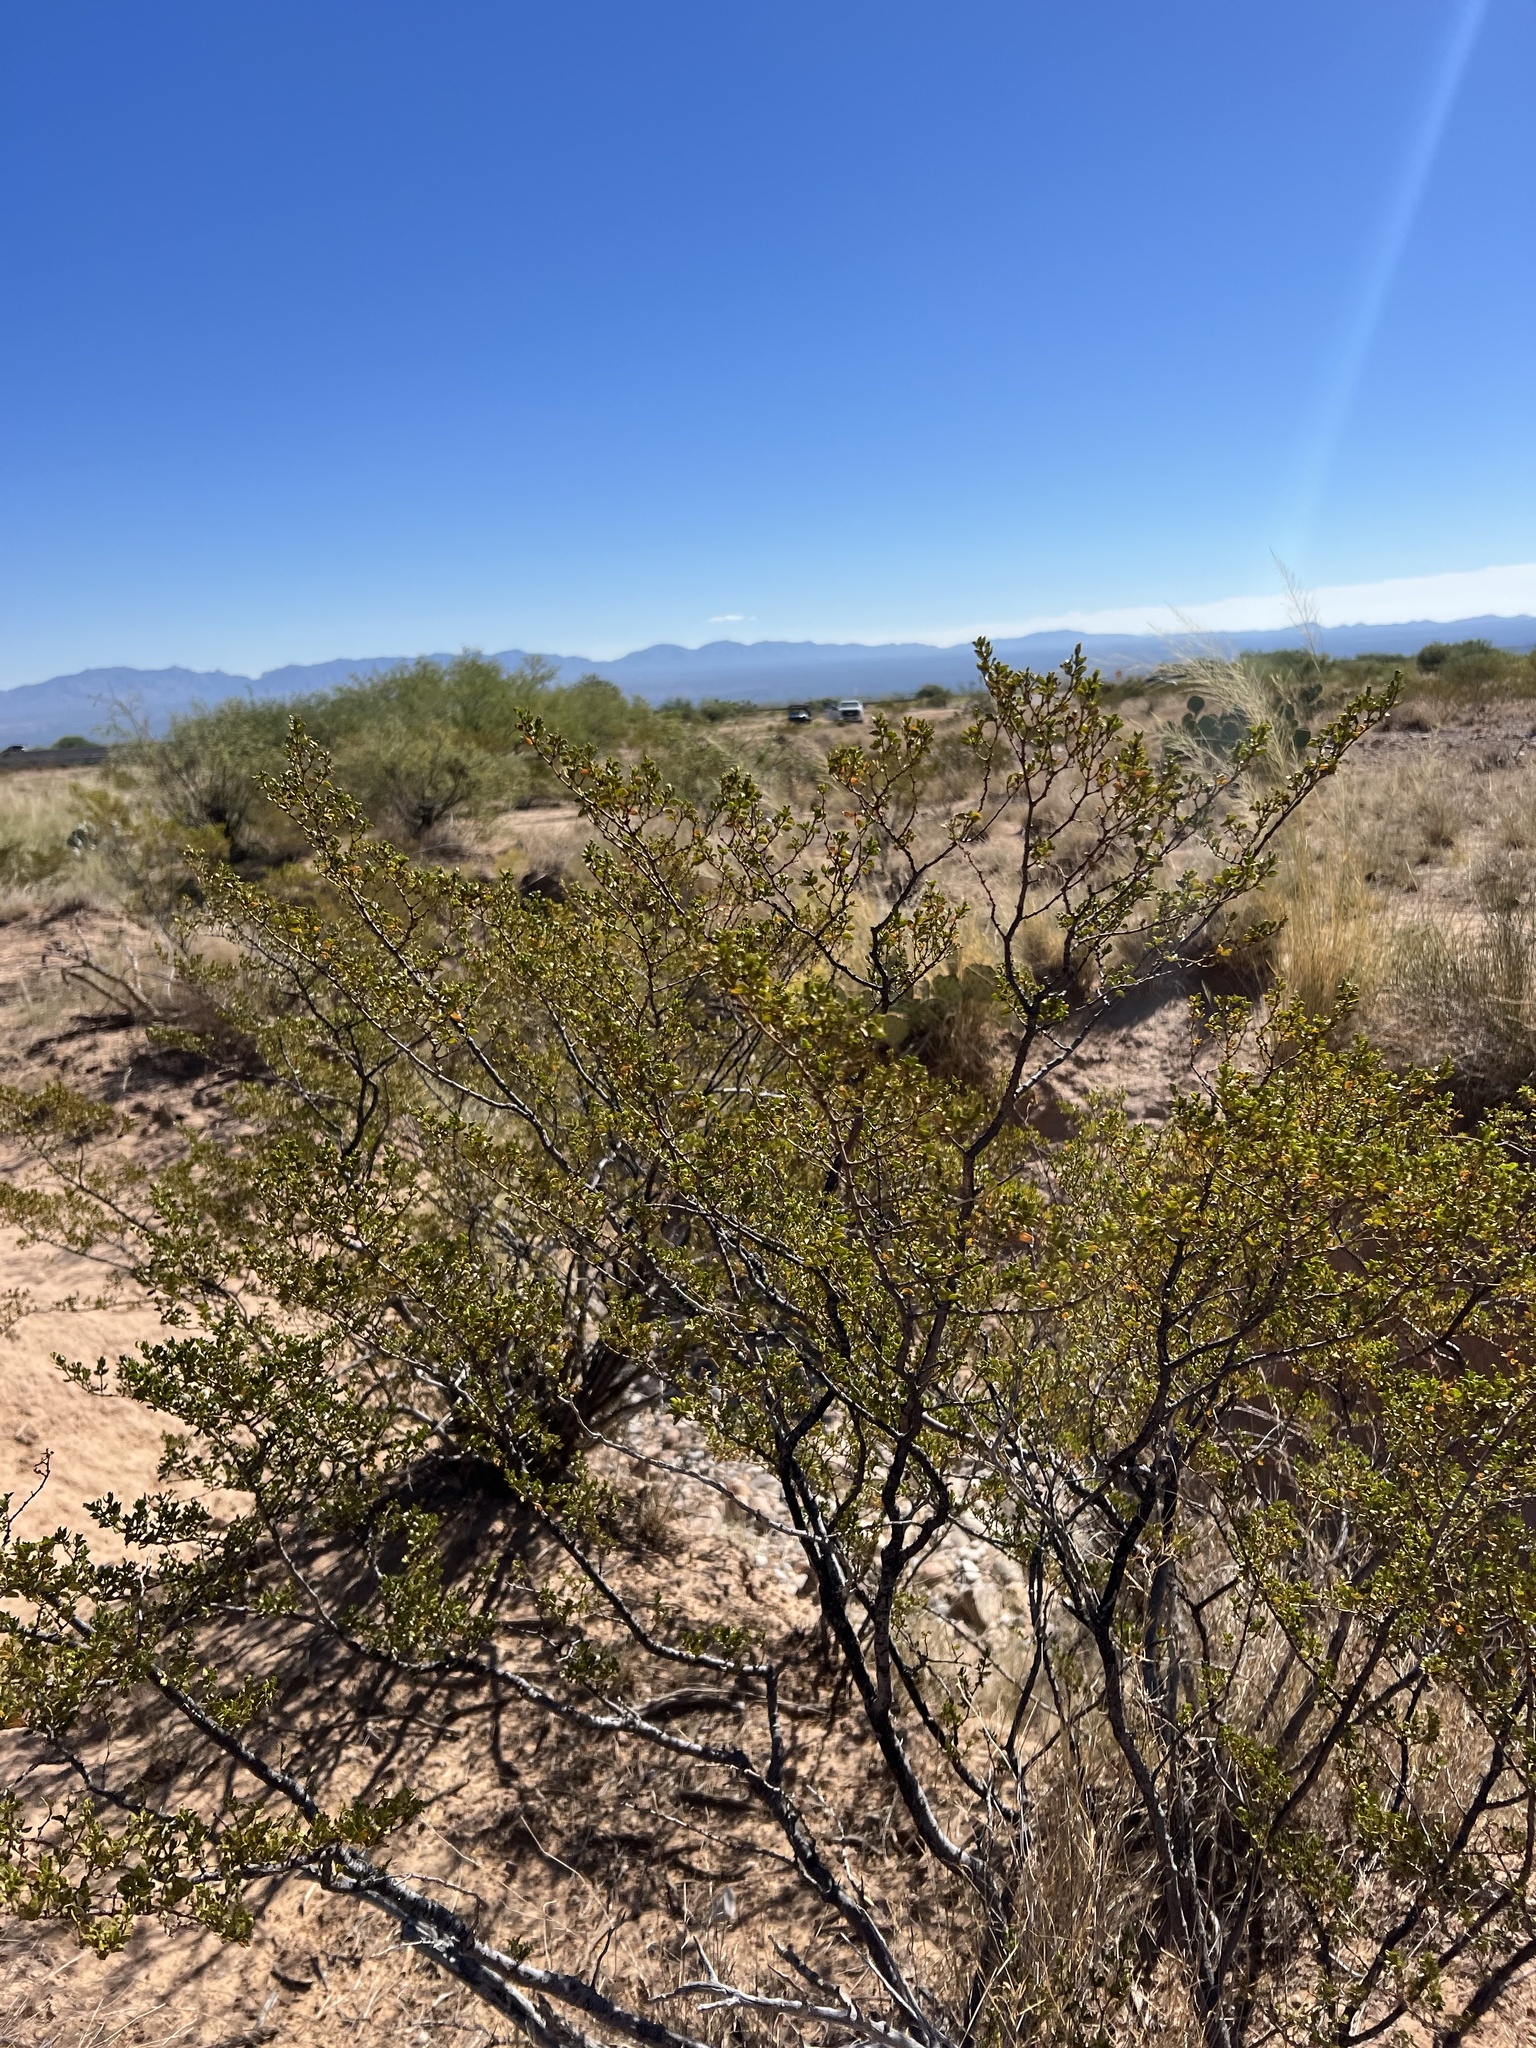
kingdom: Plantae
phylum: Tracheophyta
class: Magnoliopsida
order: Zygophyllales
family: Zygophyllaceae
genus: Larrea
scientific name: Larrea tridentata
